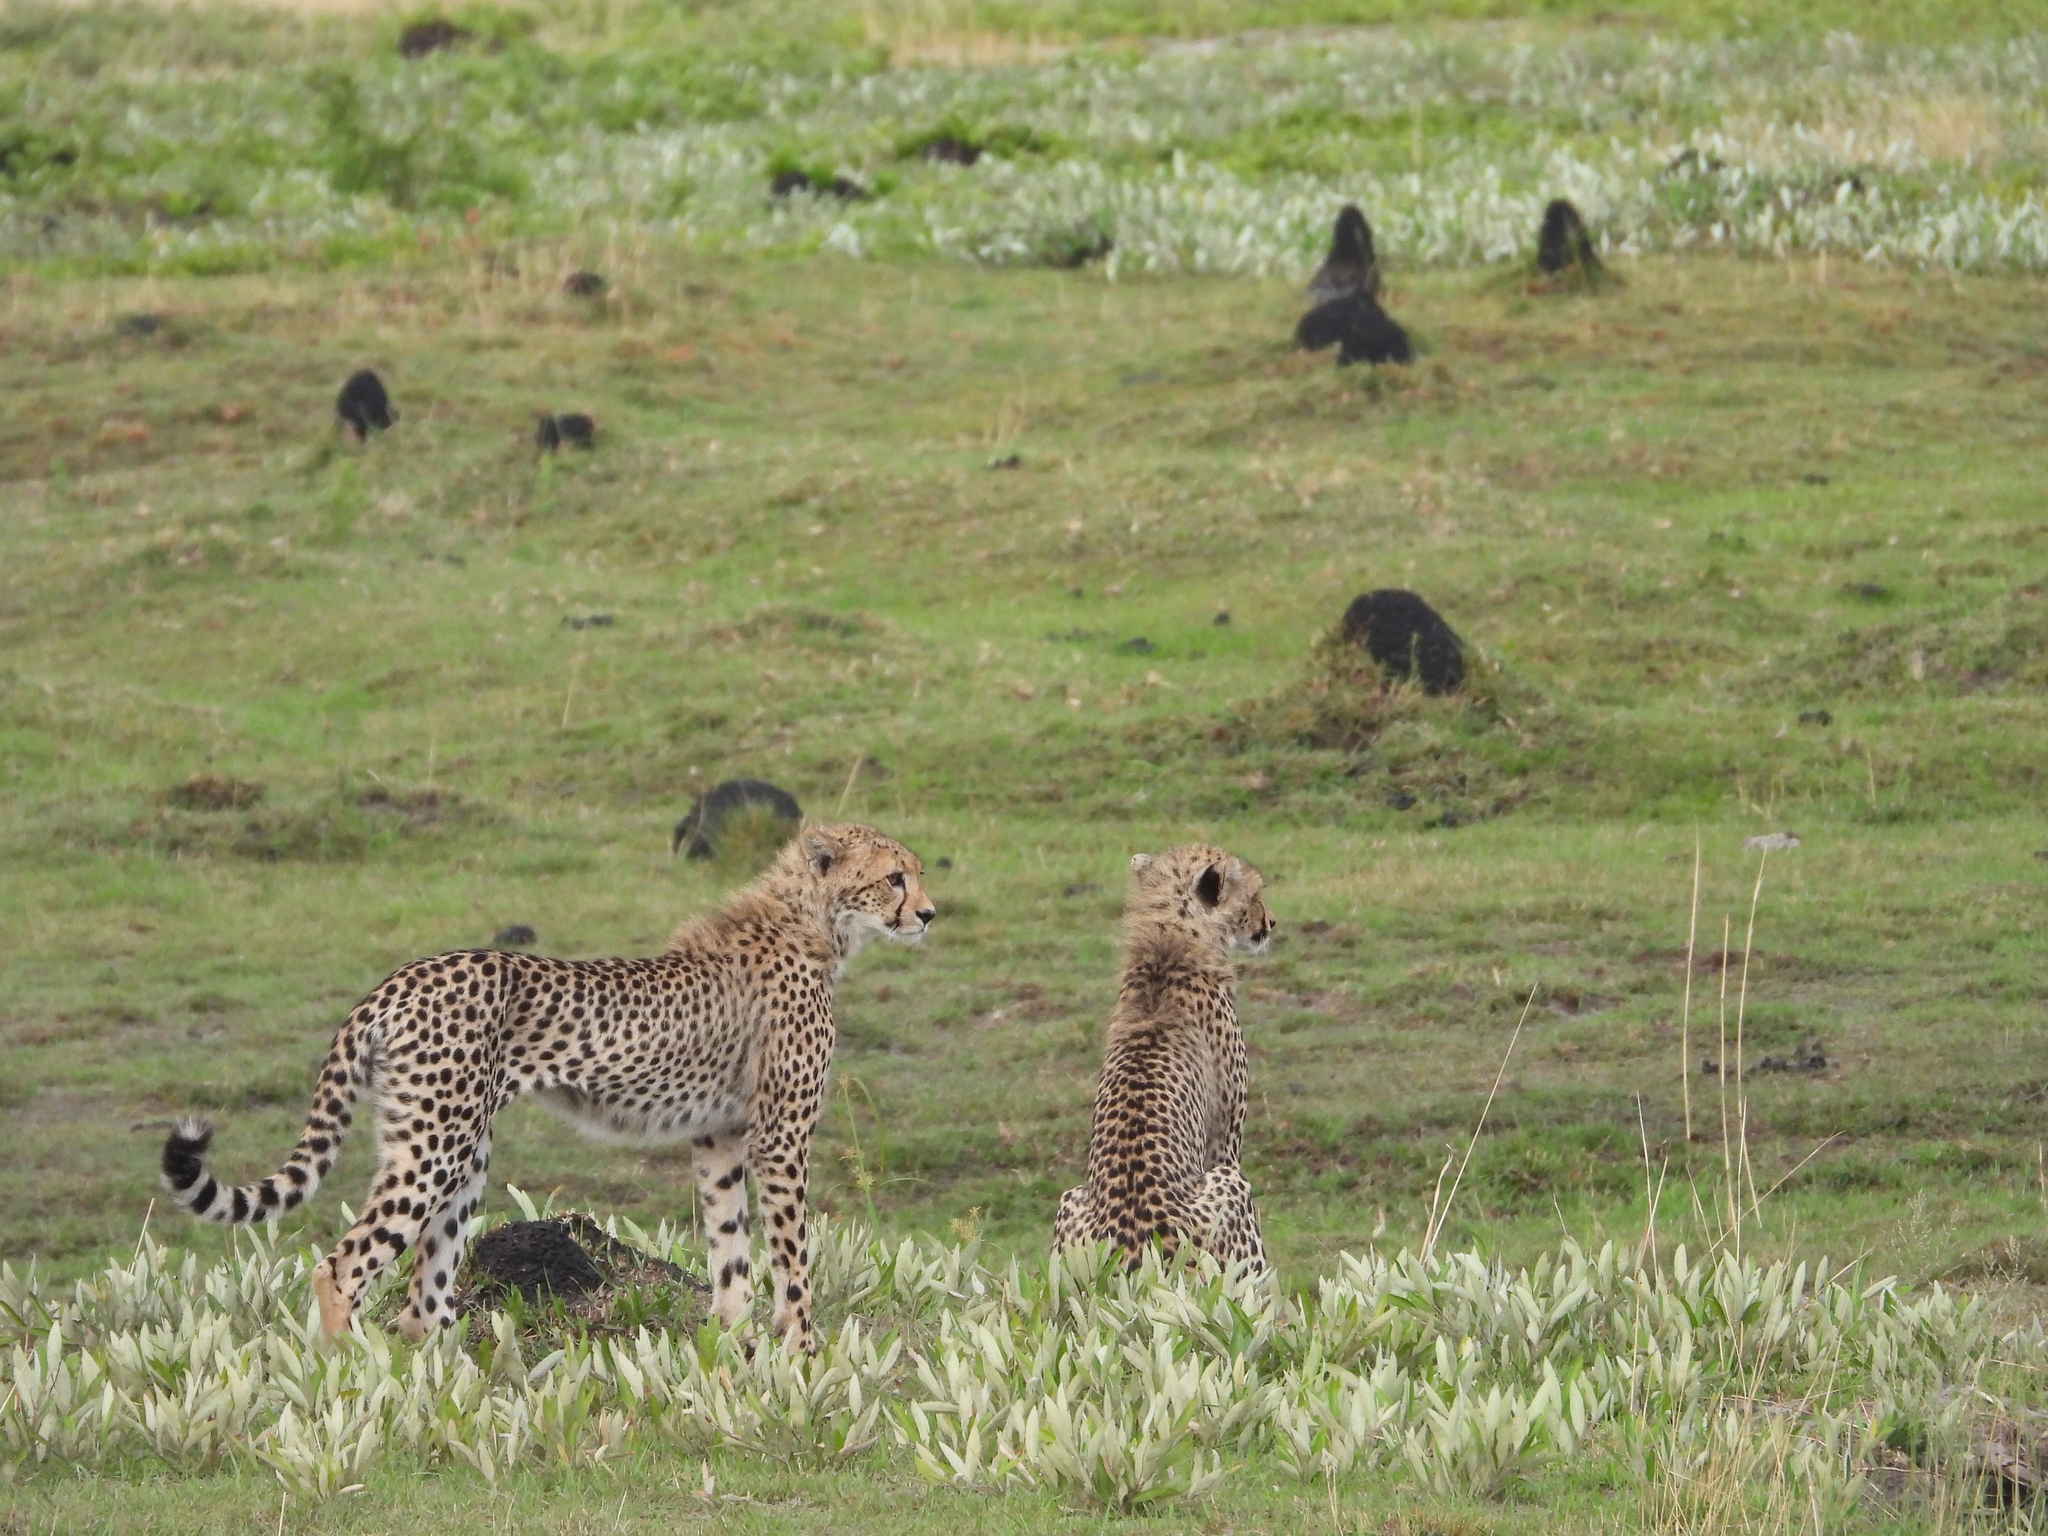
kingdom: Animalia
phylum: Chordata
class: Mammalia
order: Carnivora
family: Felidae
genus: Acinonyx
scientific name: Acinonyx jubatus
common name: Cheetah
